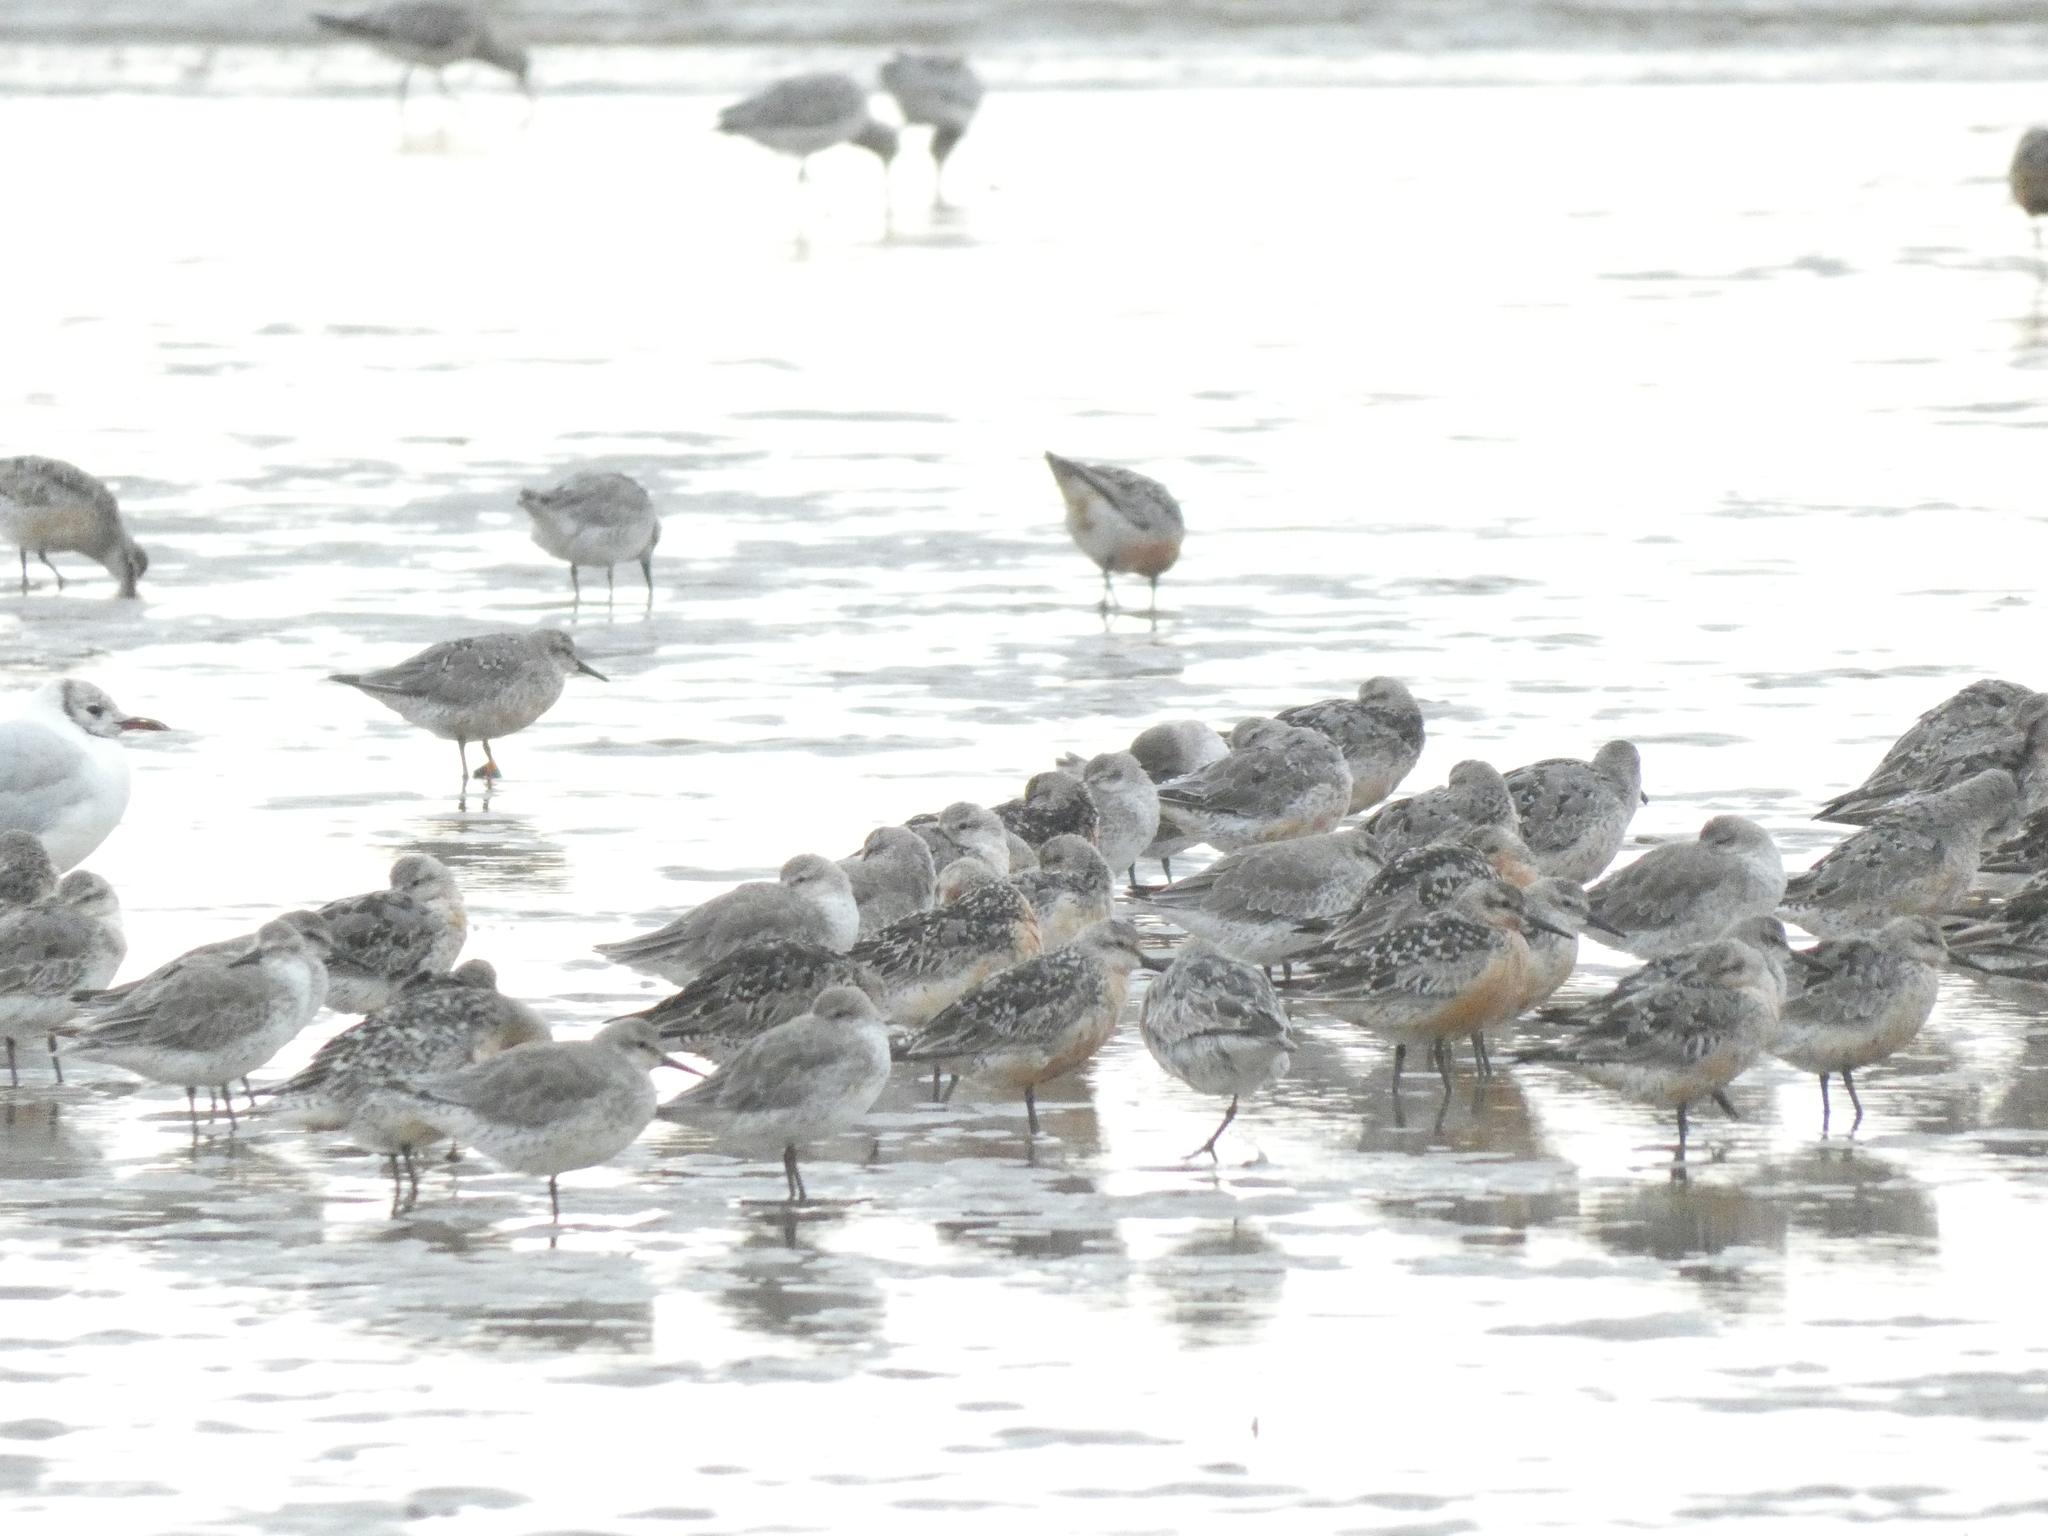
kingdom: Animalia
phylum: Chordata
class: Aves
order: Charadriiformes
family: Scolopacidae
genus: Calidris
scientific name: Calidris canutus
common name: Red knot
